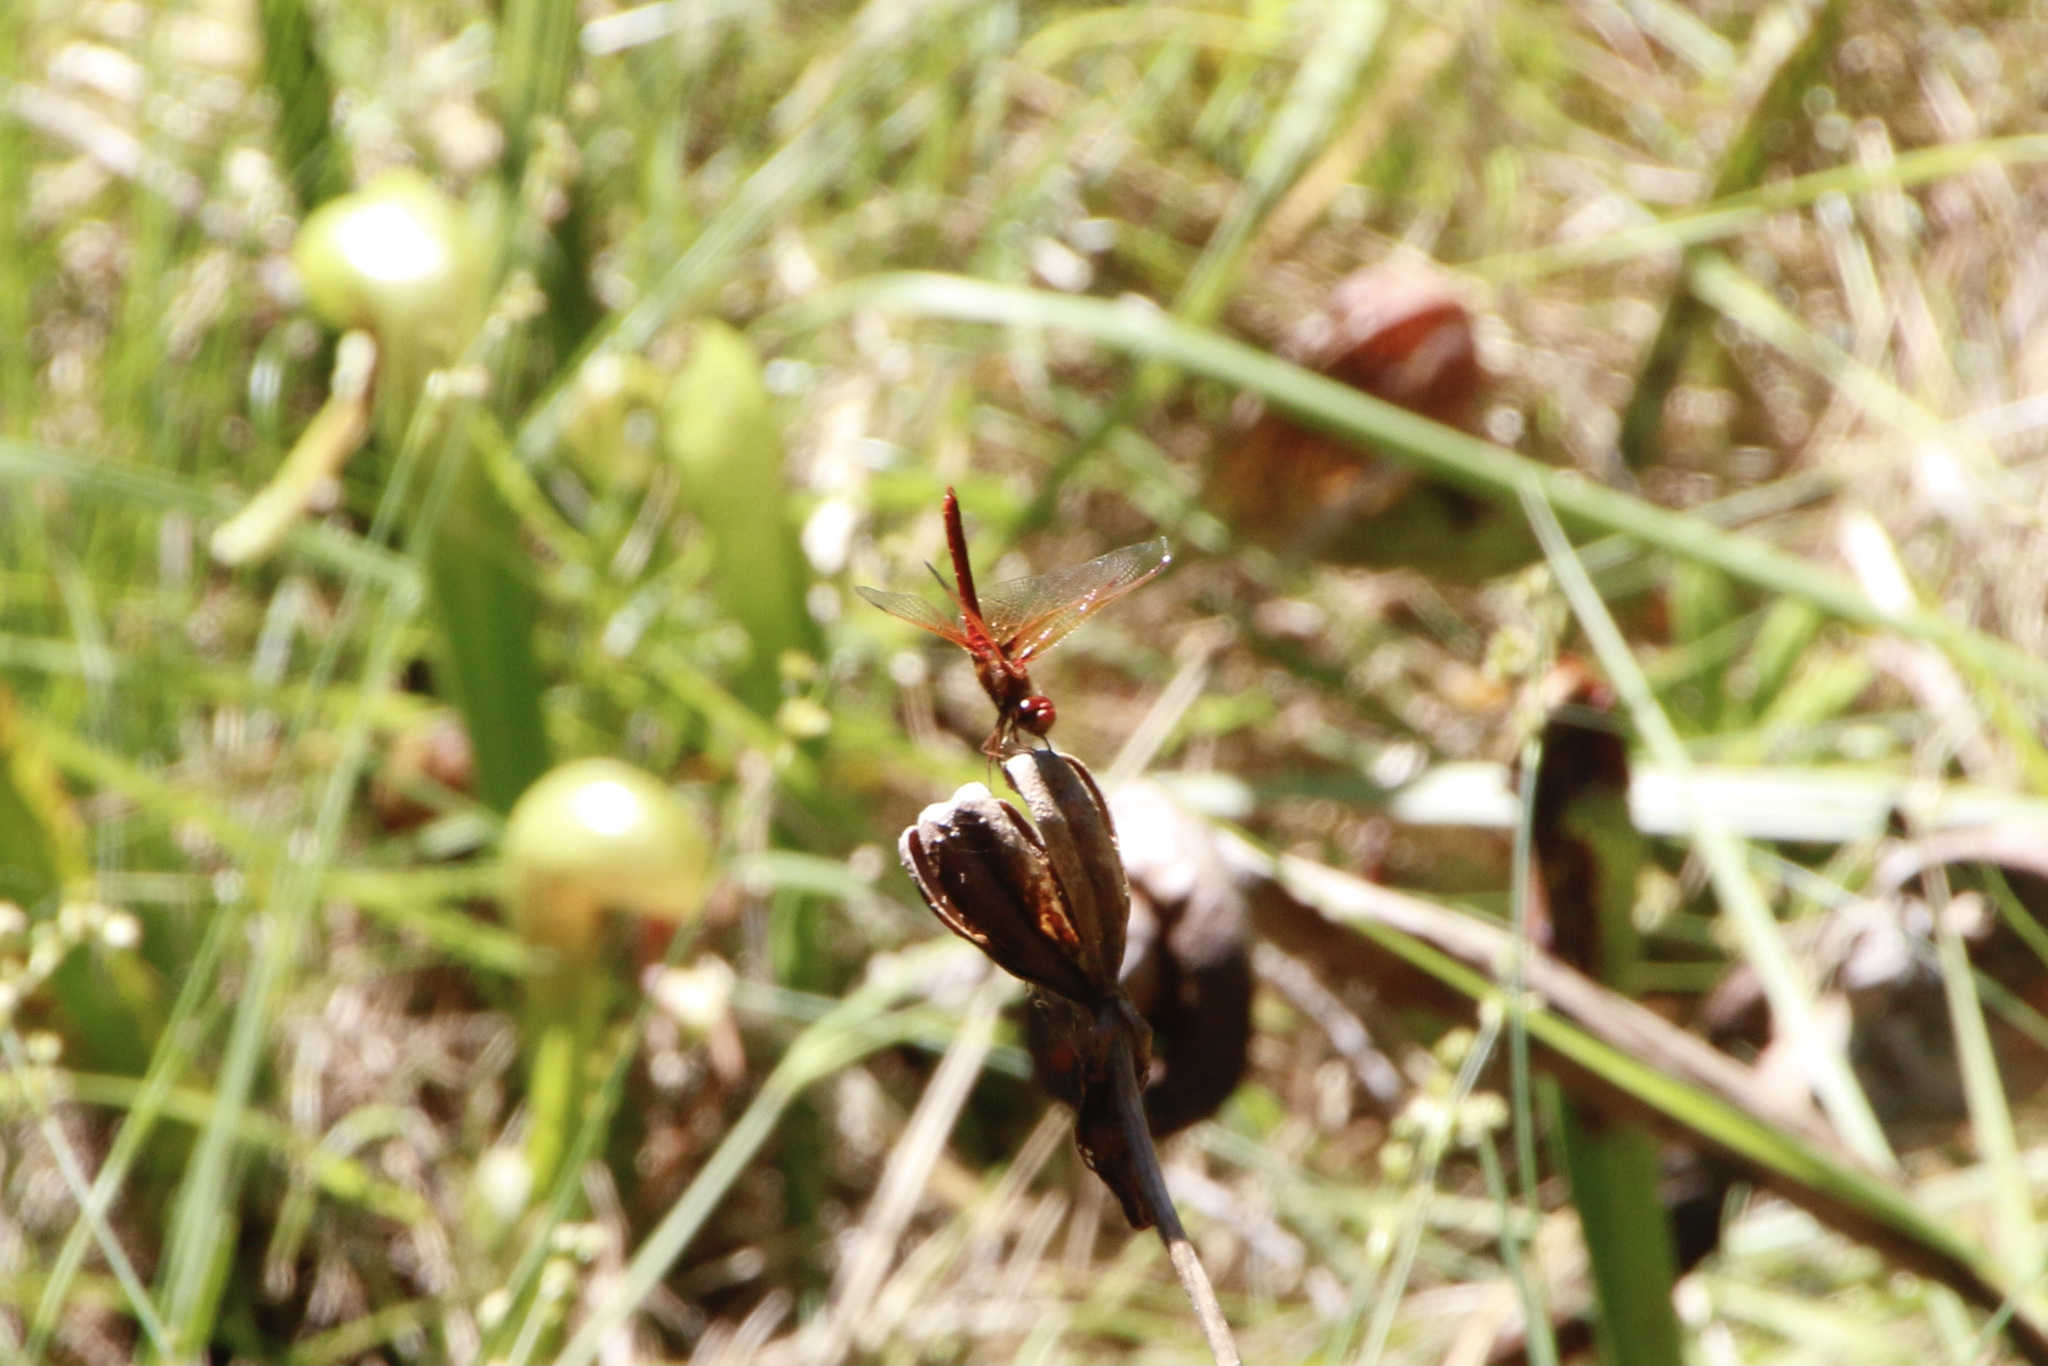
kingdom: Animalia
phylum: Arthropoda
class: Insecta
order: Odonata
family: Libellulidae
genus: Sympetrum
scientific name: Sympetrum illotum
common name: Cardinal meadowhawk
